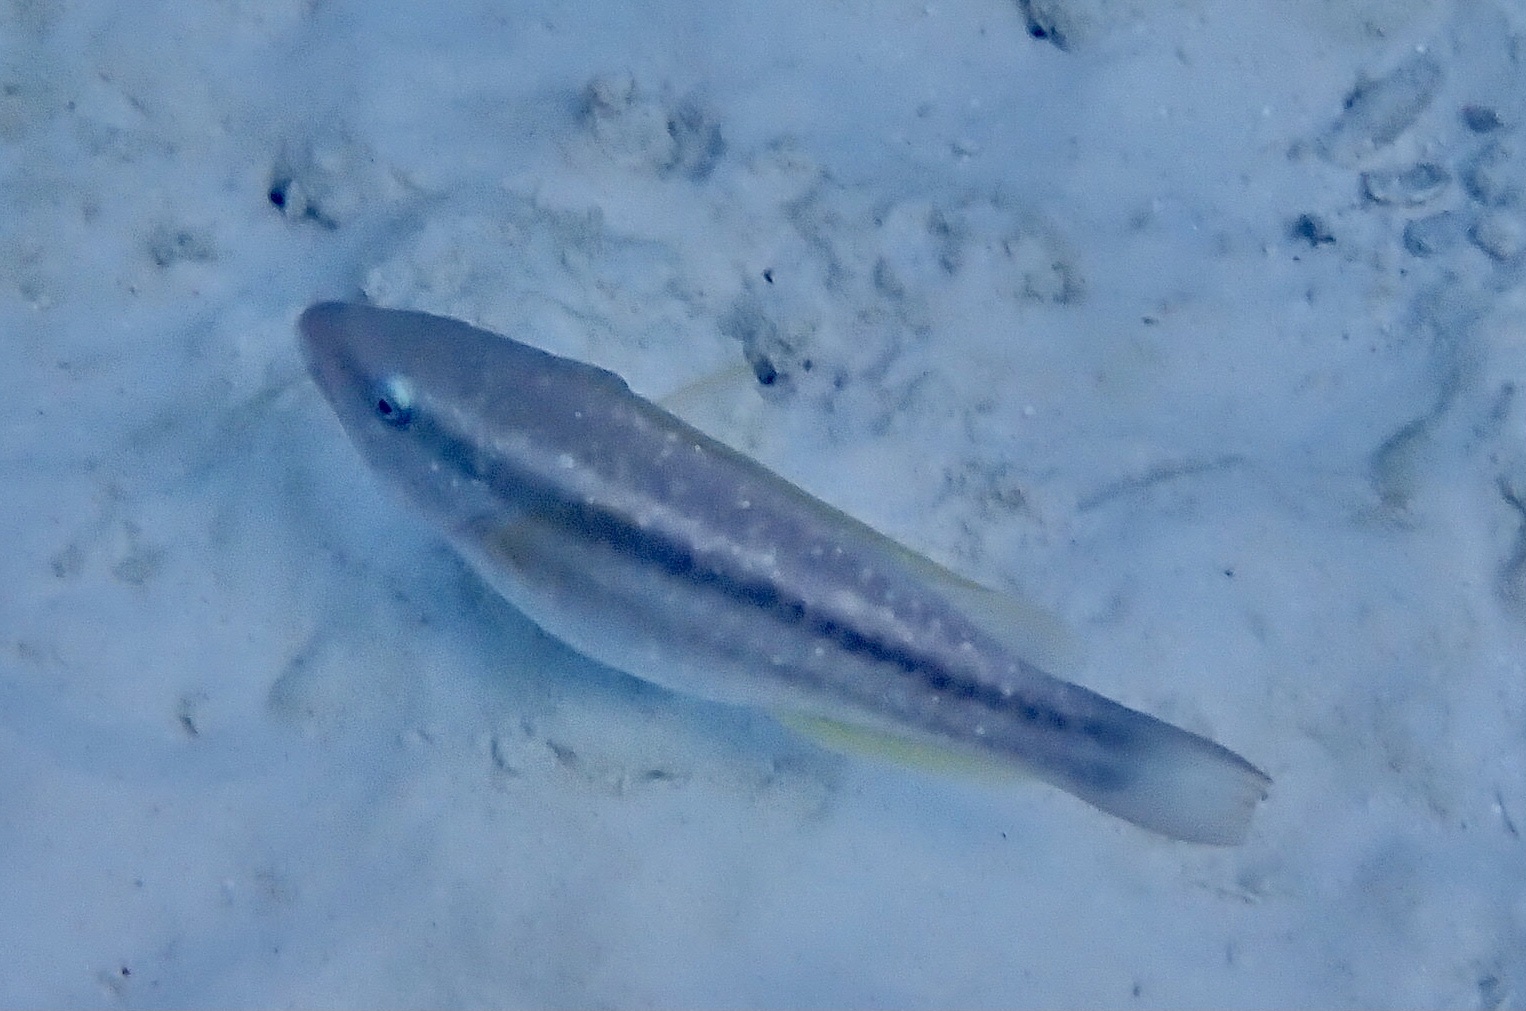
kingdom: Animalia
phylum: Chordata
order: Perciformes
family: Scaridae
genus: Scarus
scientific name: Scarus iseri
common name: Striped parrotfish
